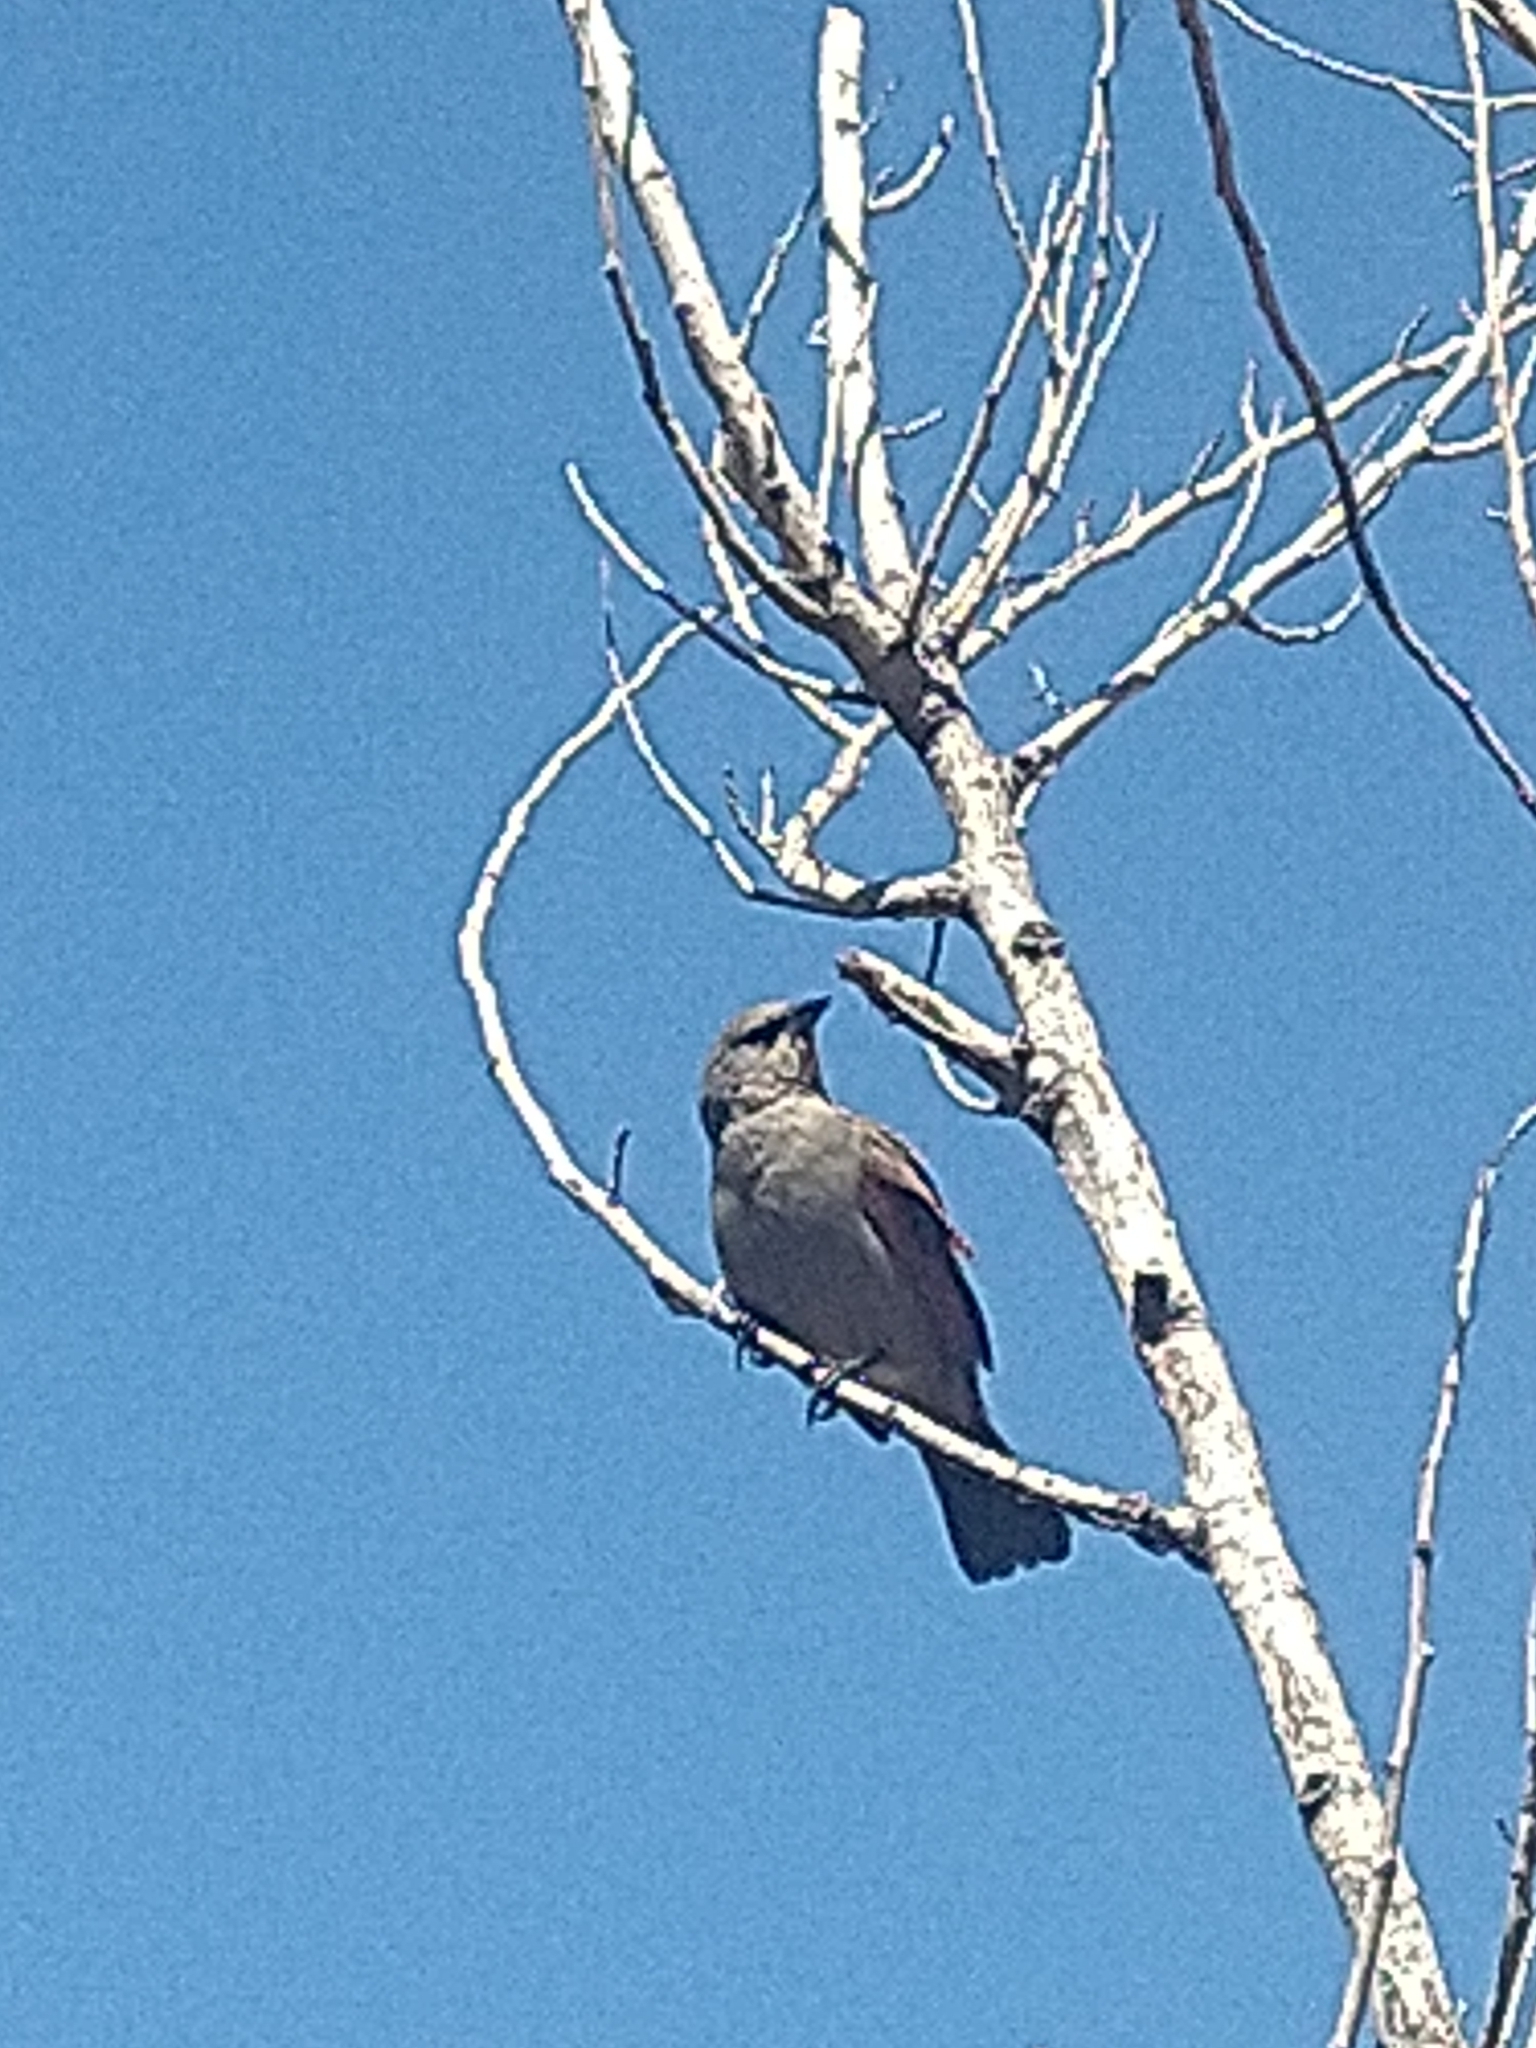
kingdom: Animalia
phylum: Chordata
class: Aves
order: Passeriformes
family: Icteridae
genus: Agelaioides
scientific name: Agelaioides badius
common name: Baywing
